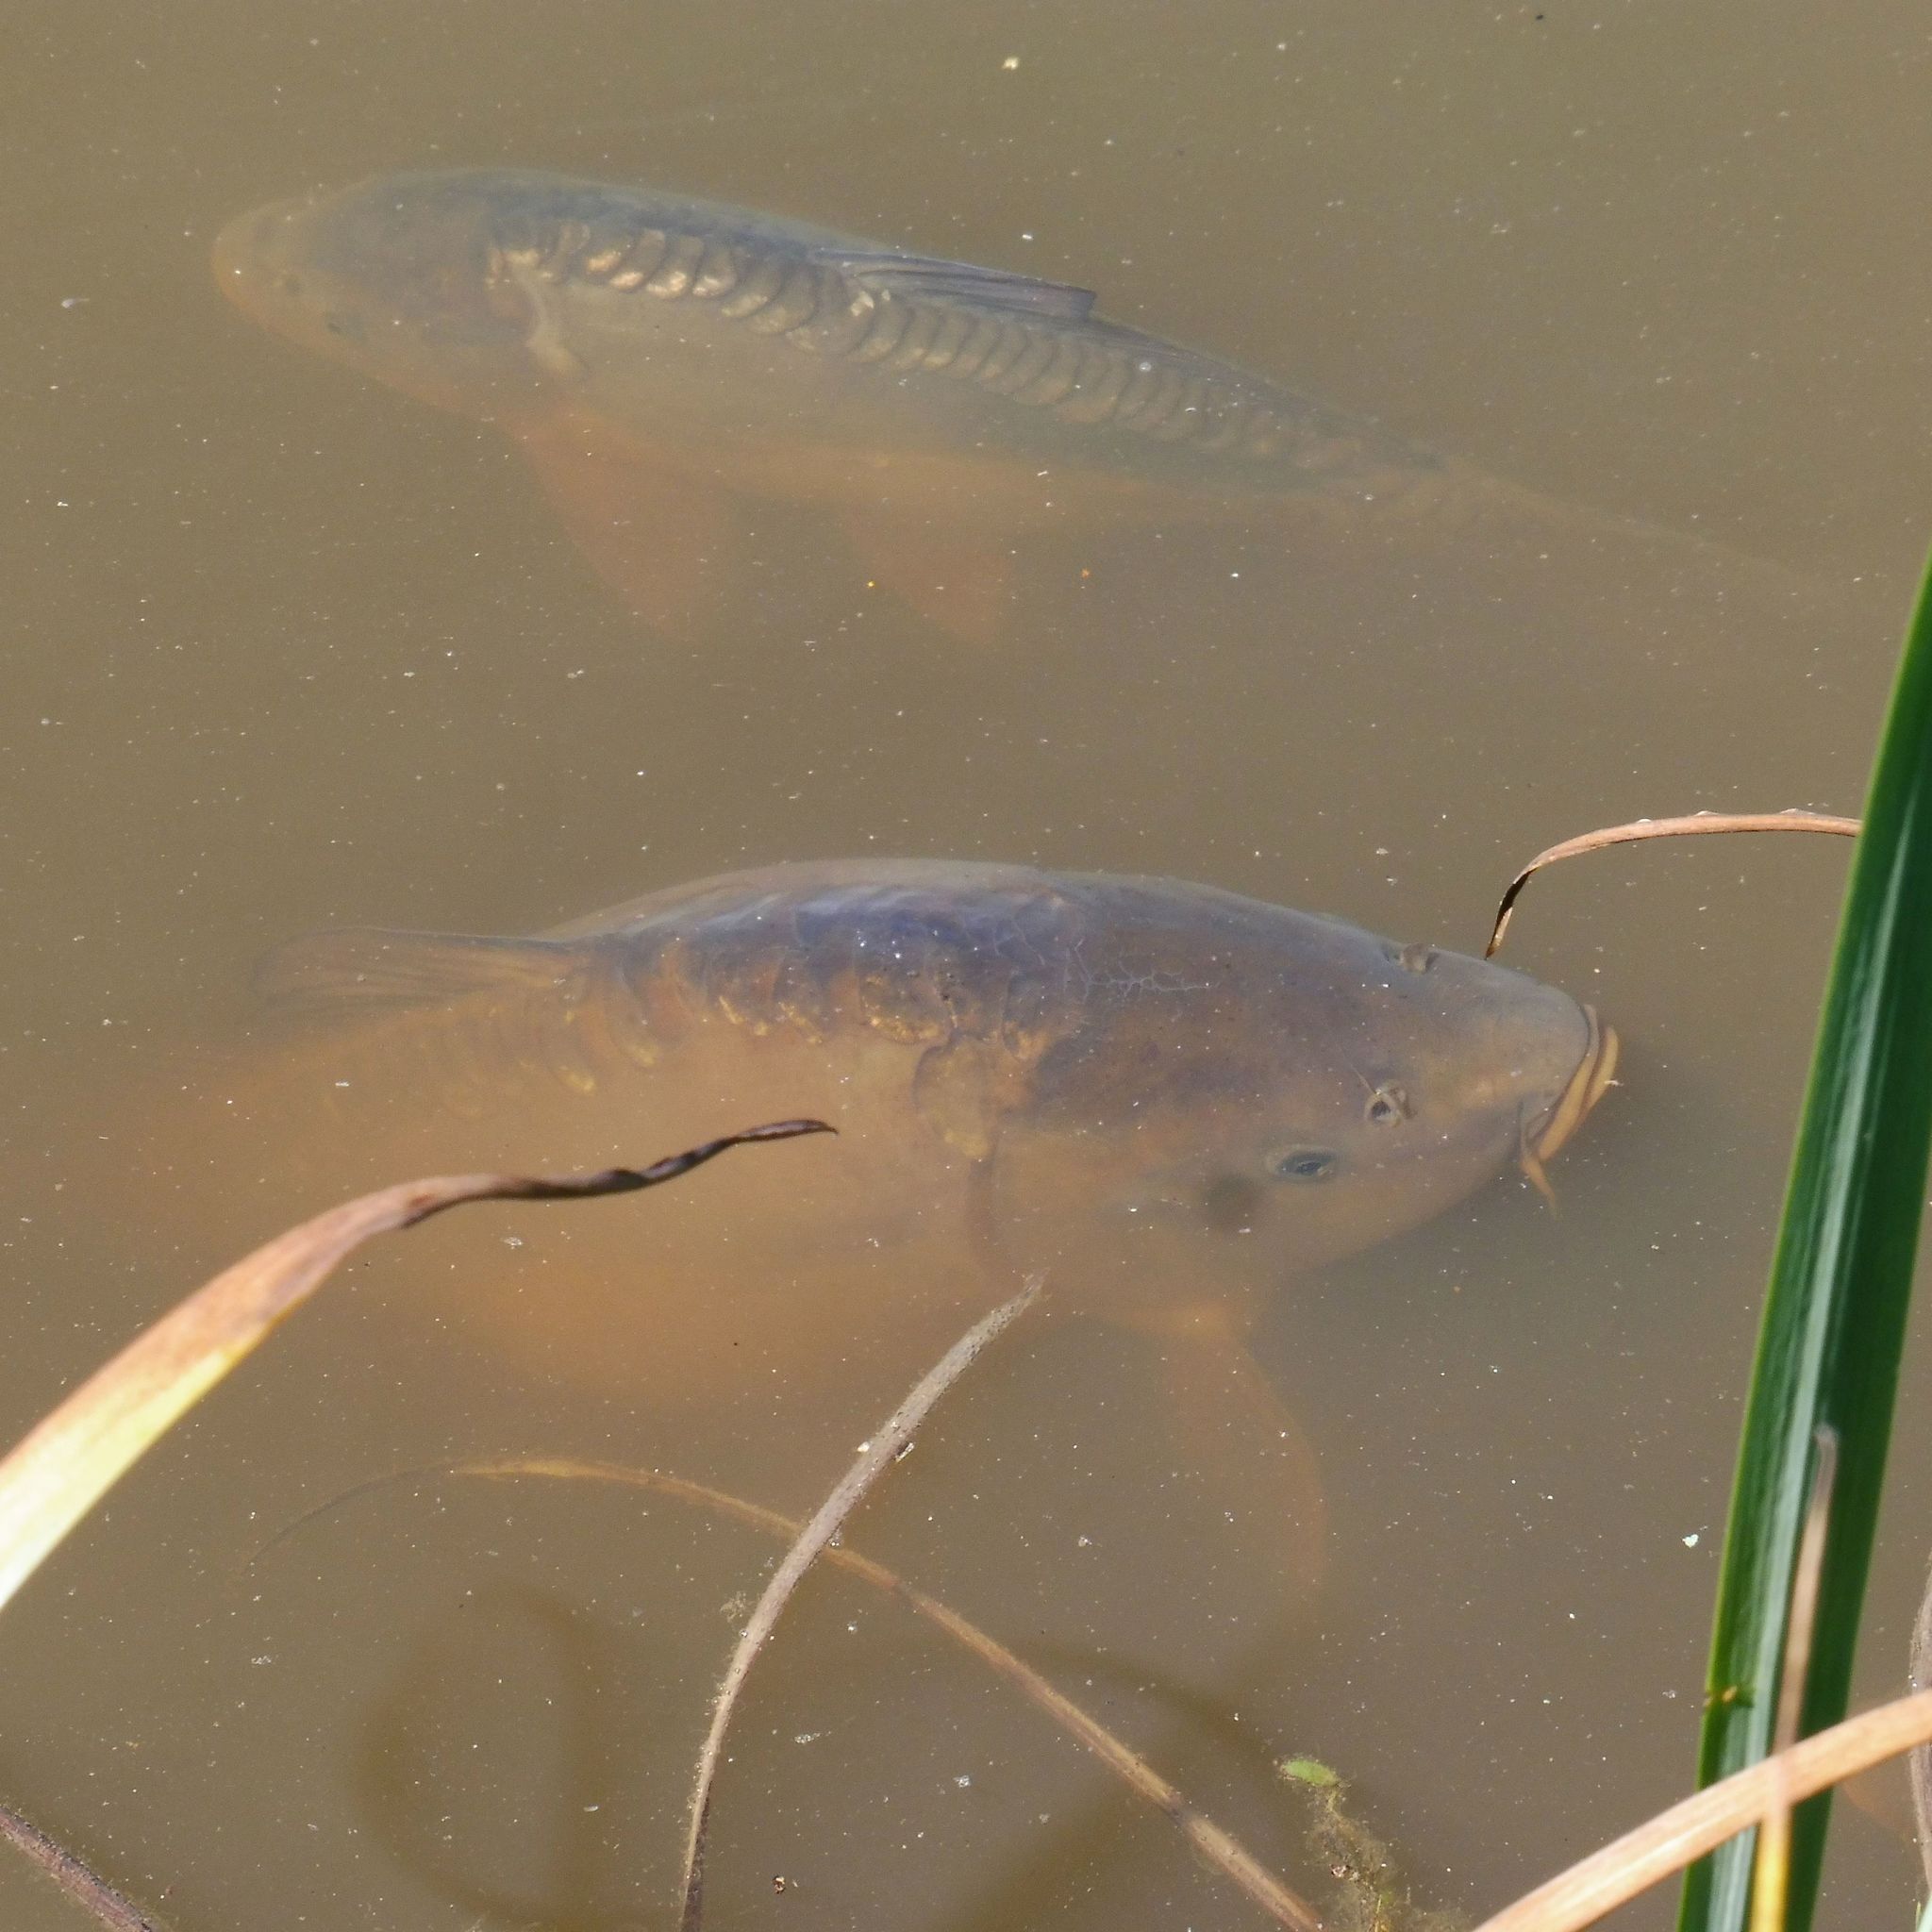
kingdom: Animalia
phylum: Chordata
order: Cypriniformes
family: Cyprinidae
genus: Cyprinus
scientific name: Cyprinus carpio
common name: Common carp
